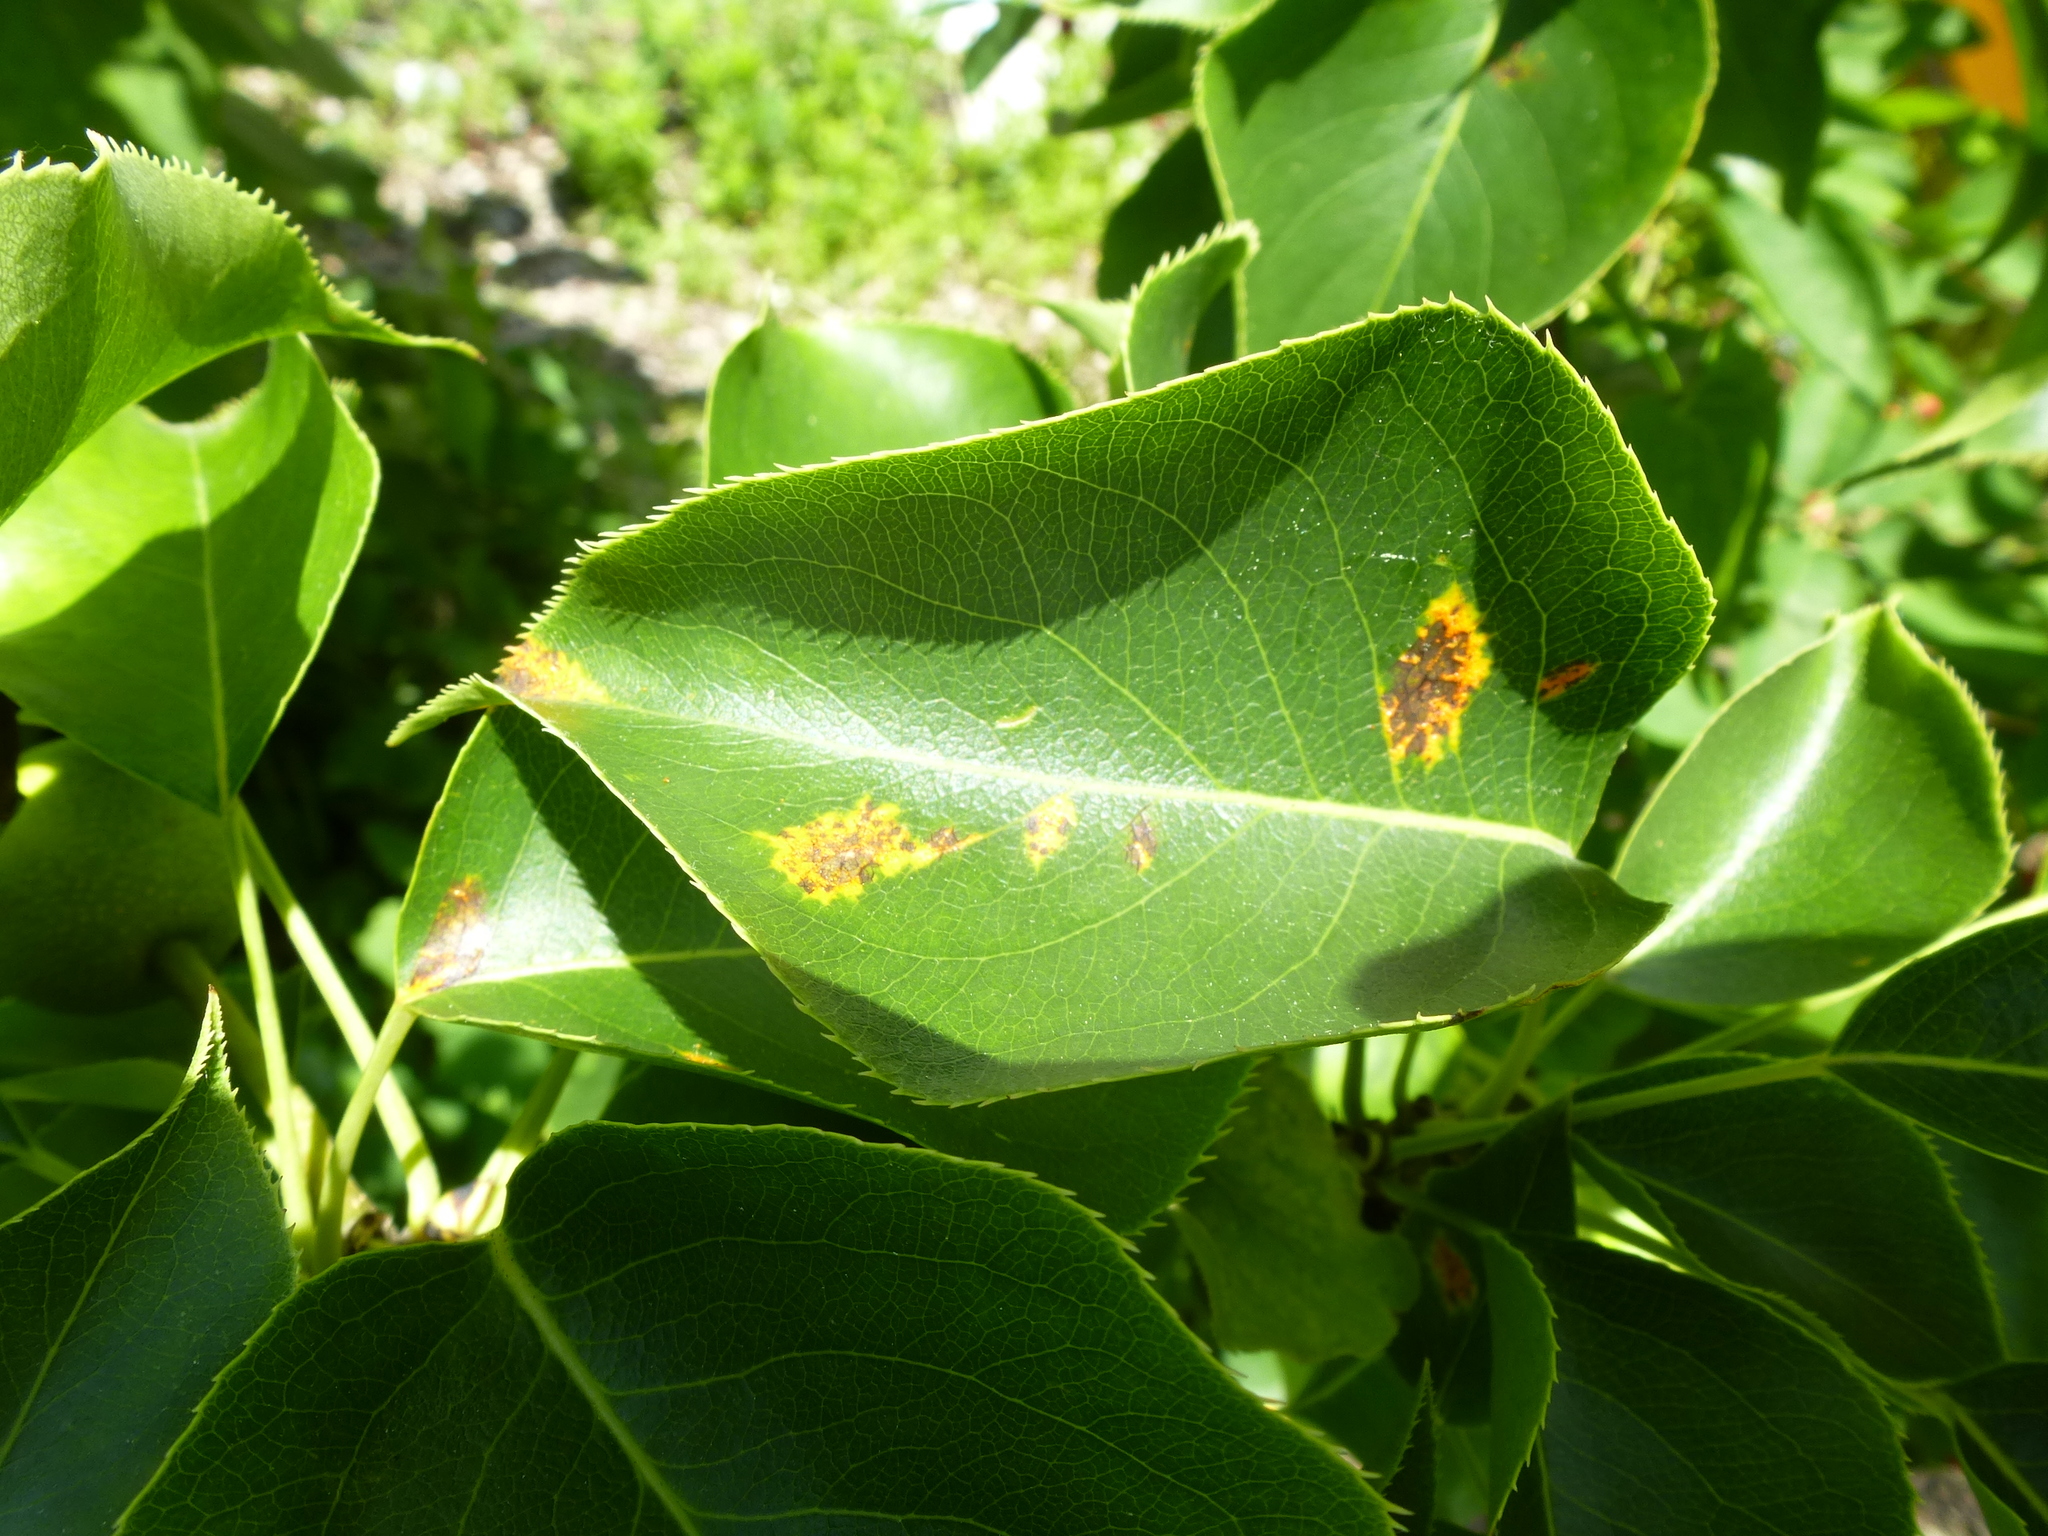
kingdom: Fungi
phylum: Basidiomycota
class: Pucciniomycetes
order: Pucciniales
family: Gymnosporangiaceae
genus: Gymnosporangium
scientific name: Gymnosporangium sabinae
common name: Pear trellis rust fungus
